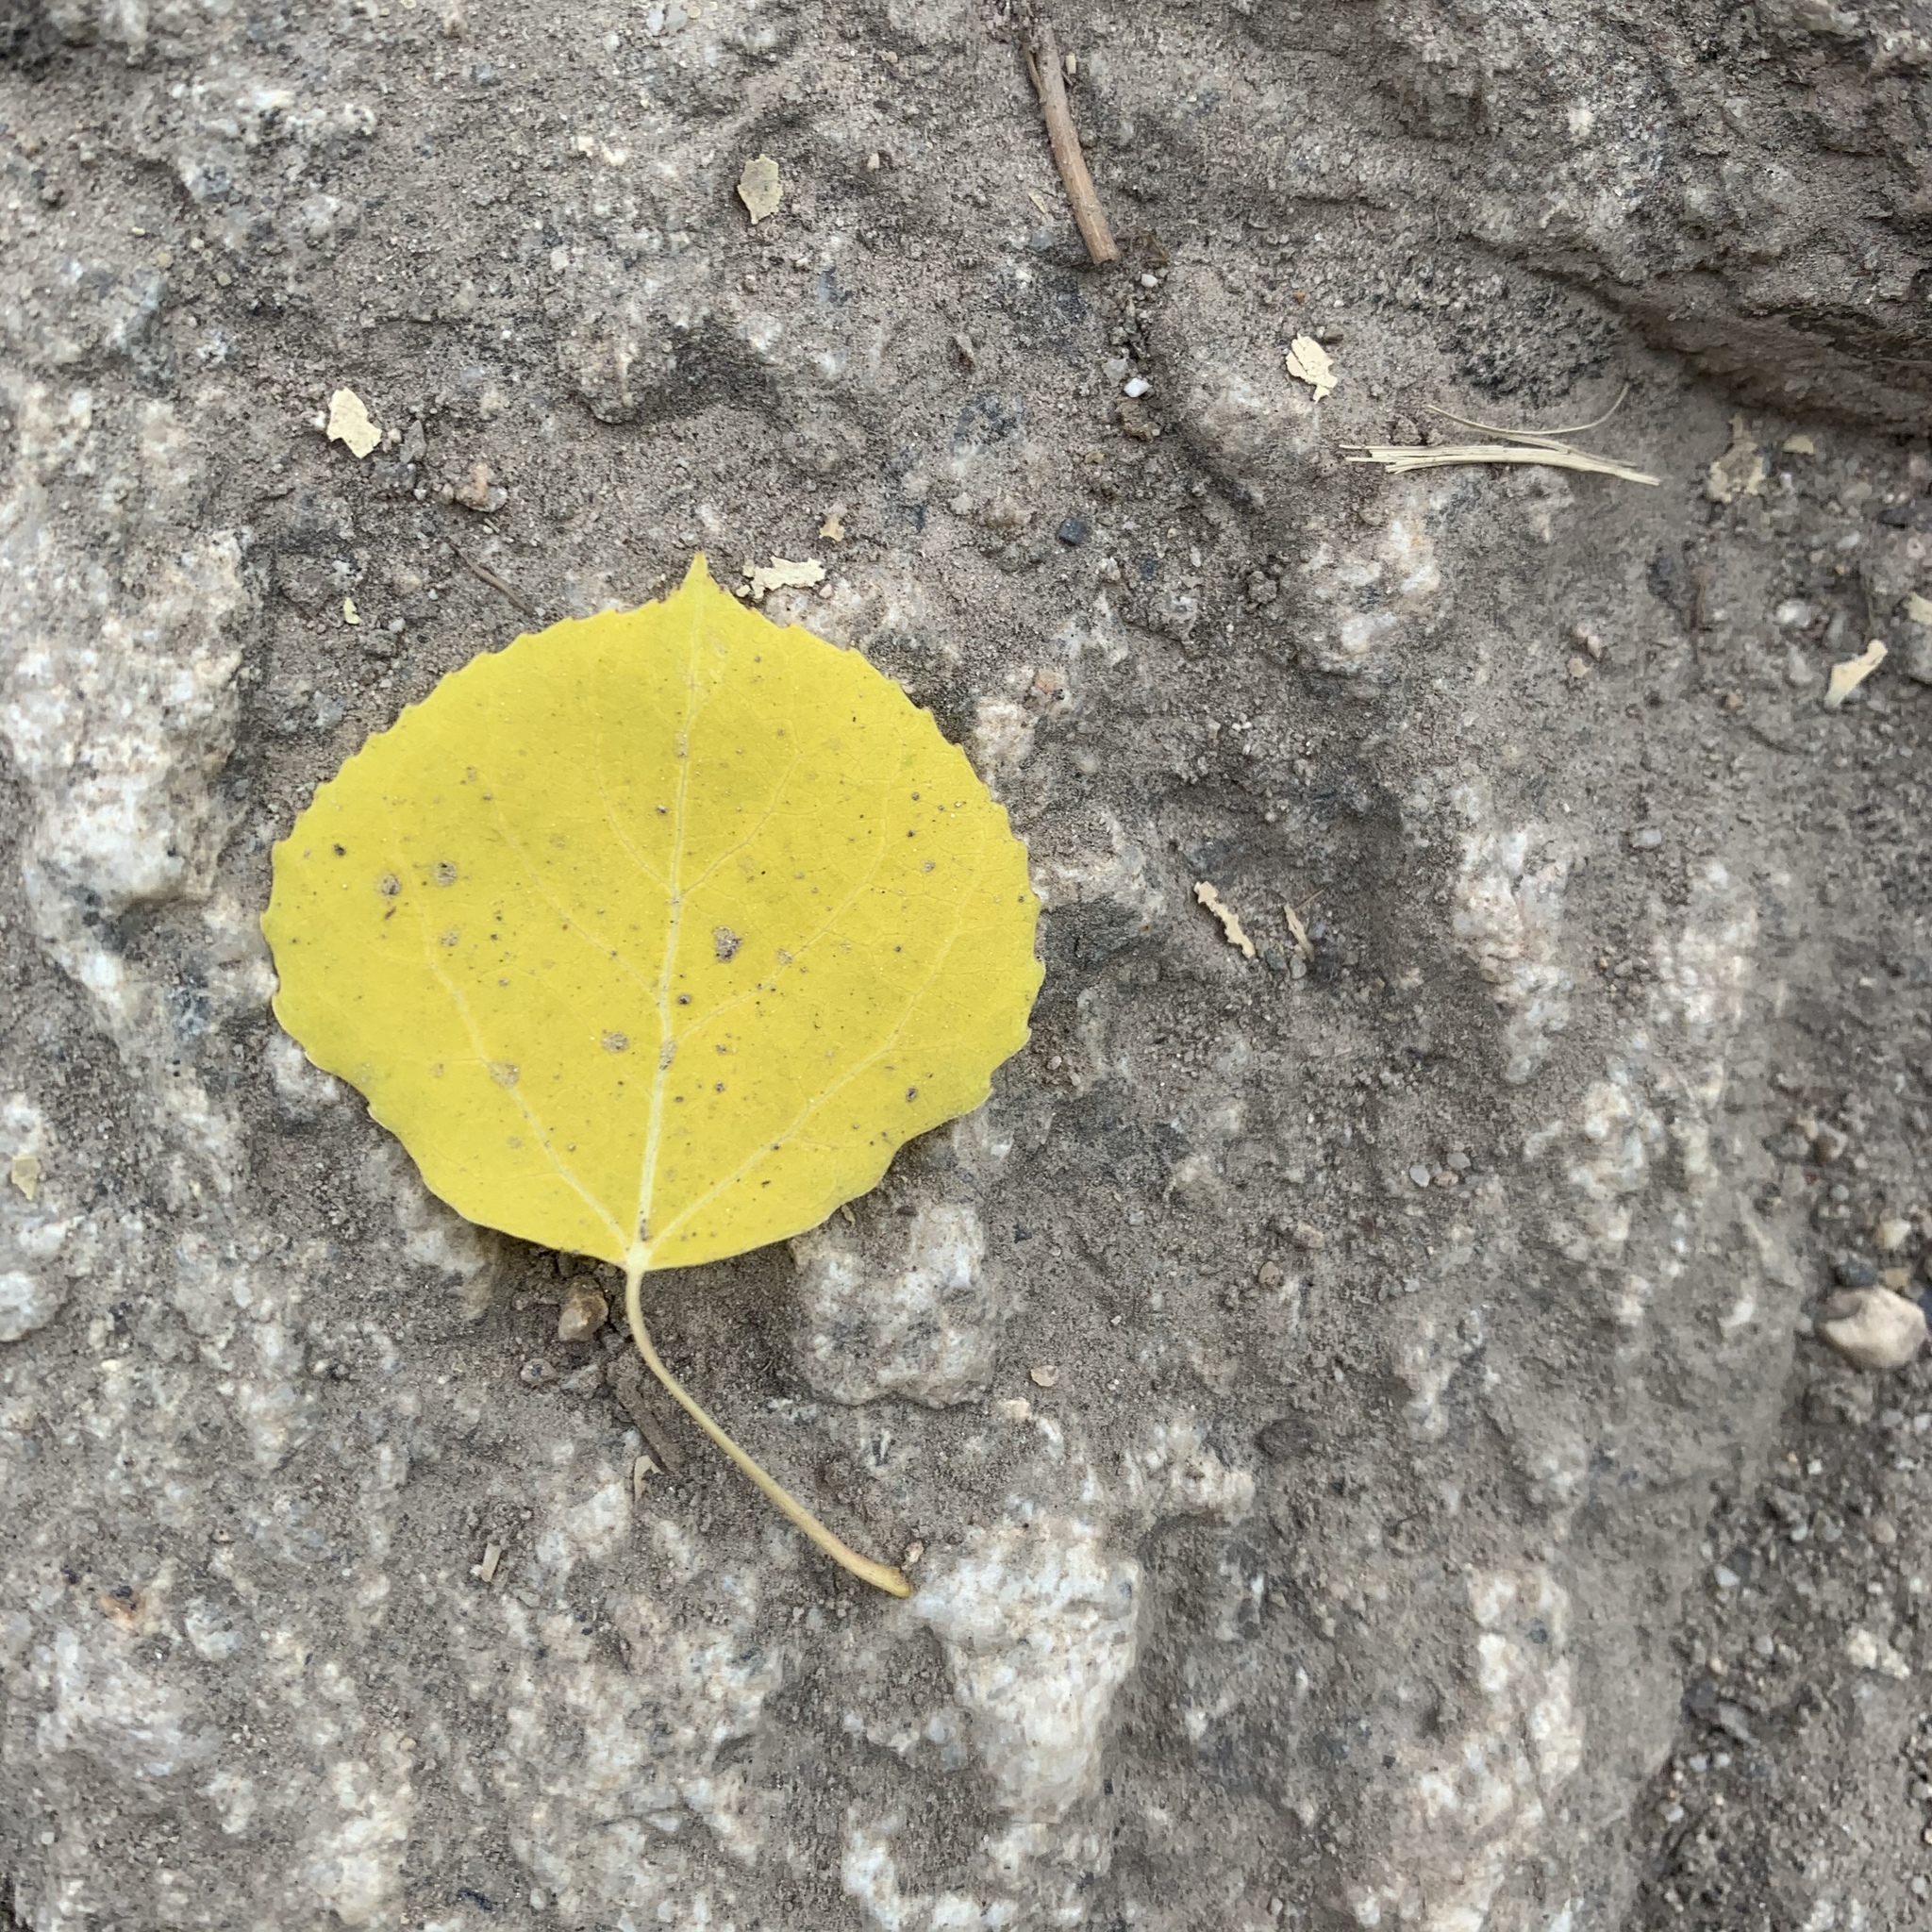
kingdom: Plantae
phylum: Tracheophyta
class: Magnoliopsida
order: Malpighiales
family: Salicaceae
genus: Populus
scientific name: Populus tremuloides
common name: Quaking aspen
